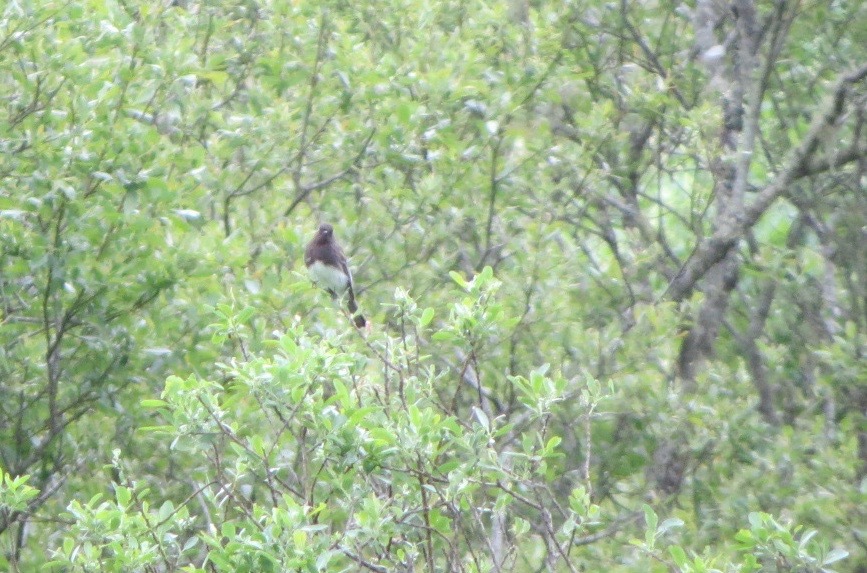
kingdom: Animalia
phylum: Chordata
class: Aves
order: Passeriformes
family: Tyrannidae
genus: Sayornis
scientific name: Sayornis nigricans
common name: Black phoebe
